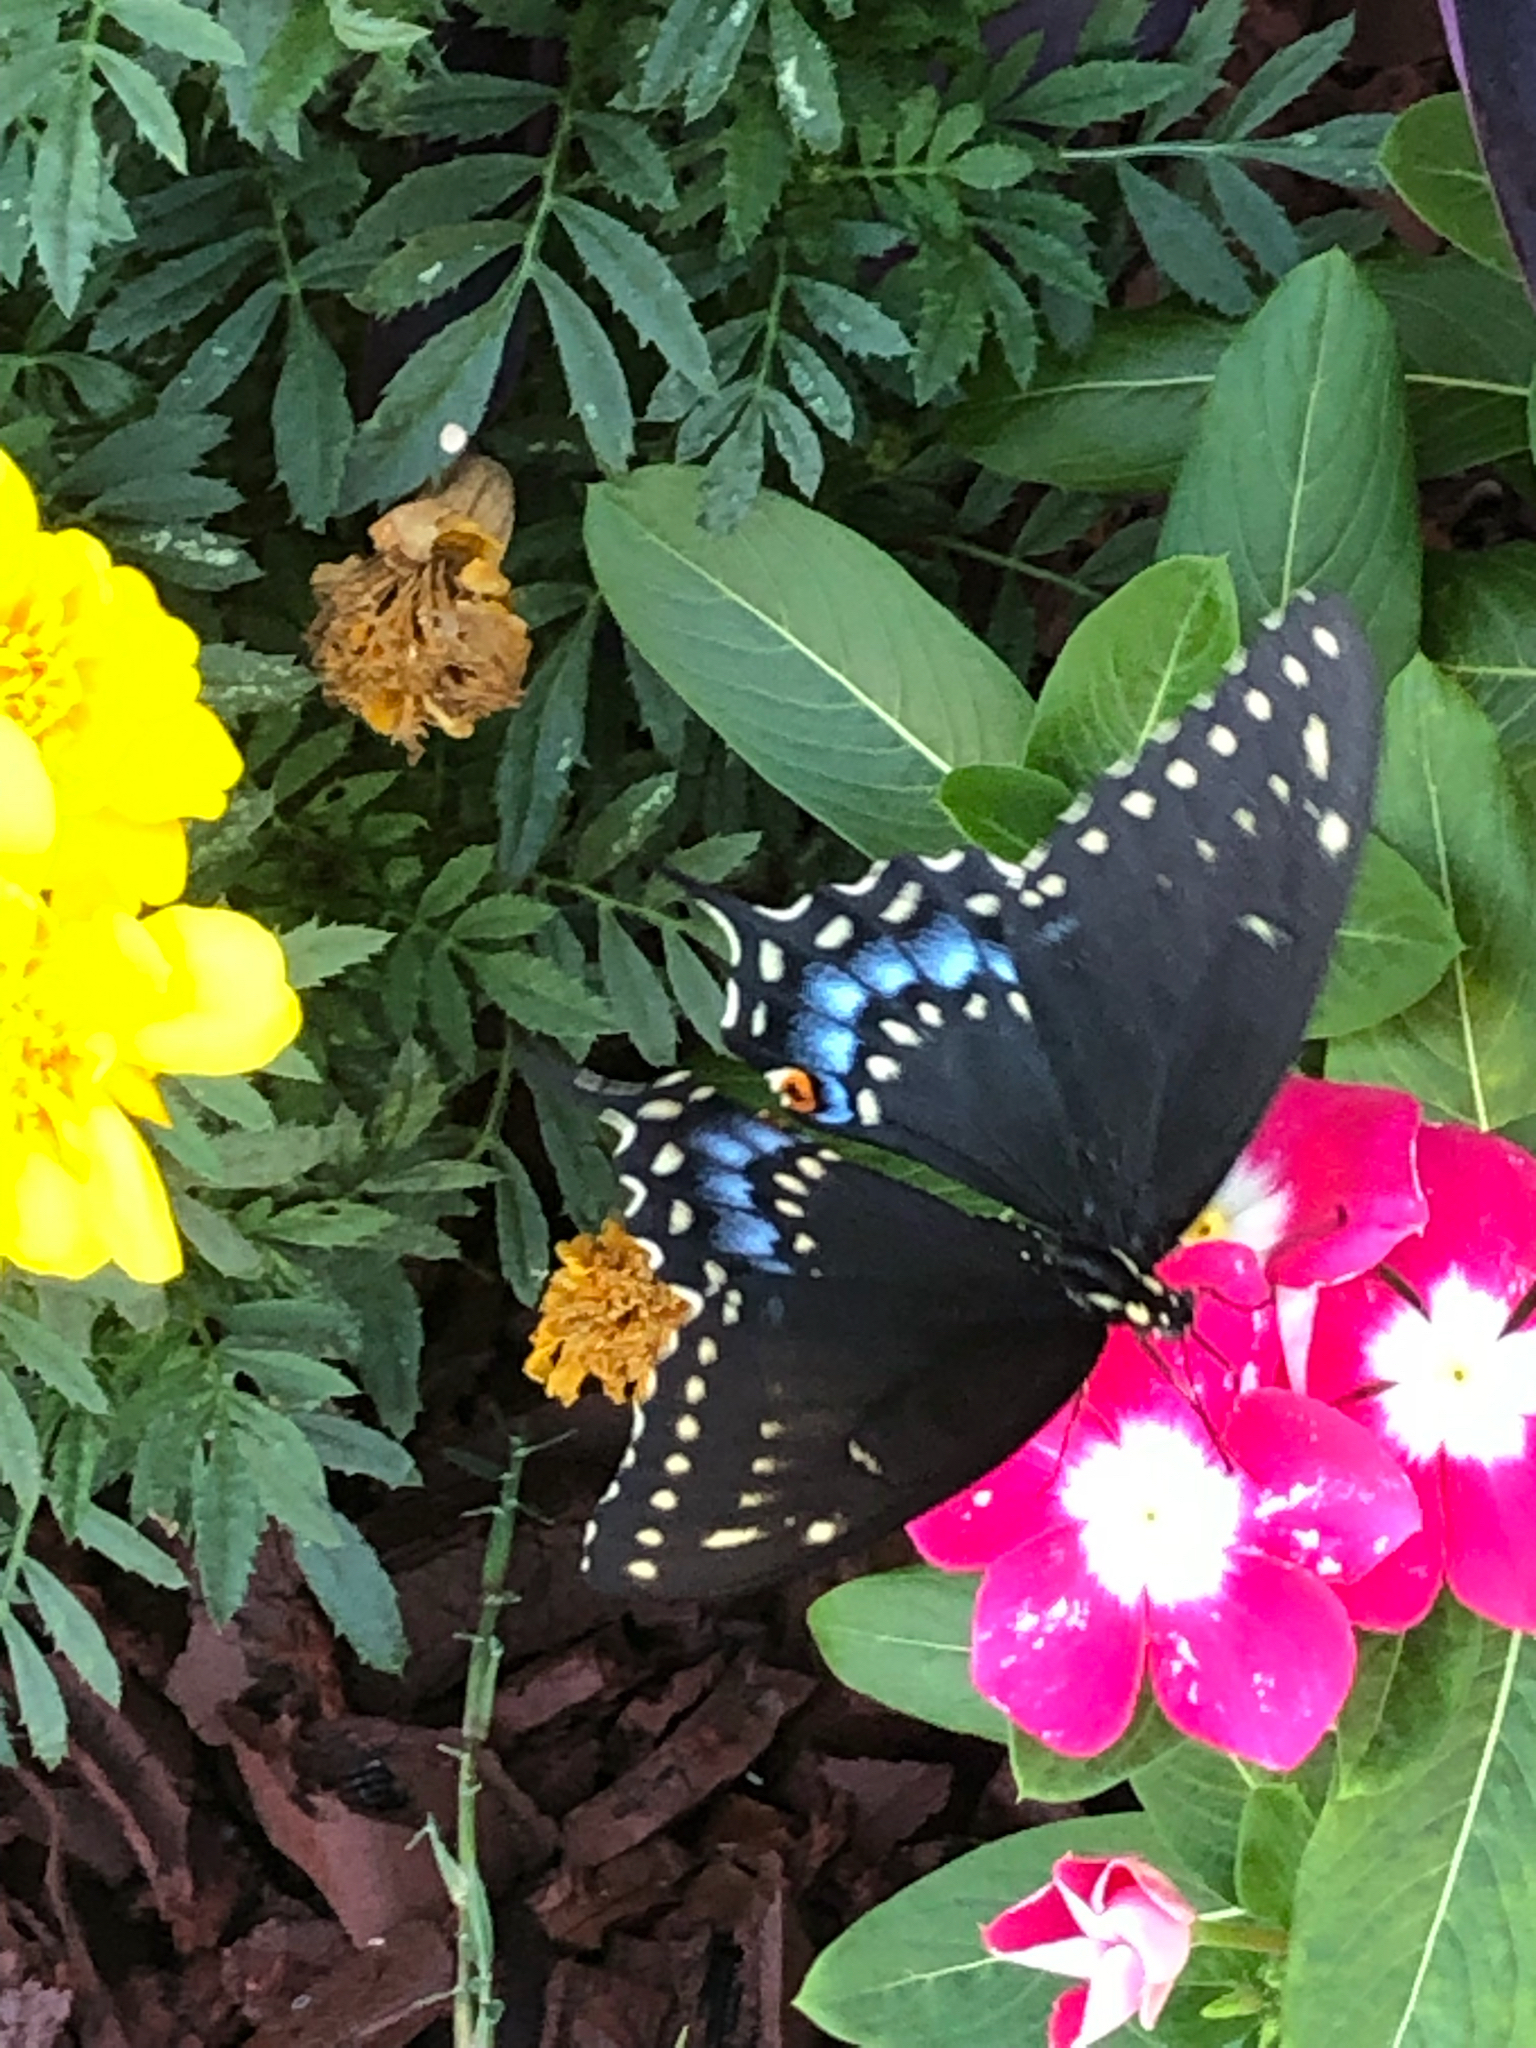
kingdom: Animalia
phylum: Arthropoda
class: Insecta
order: Lepidoptera
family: Papilionidae
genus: Papilio
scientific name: Papilio polyxenes
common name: Black swallowtail
